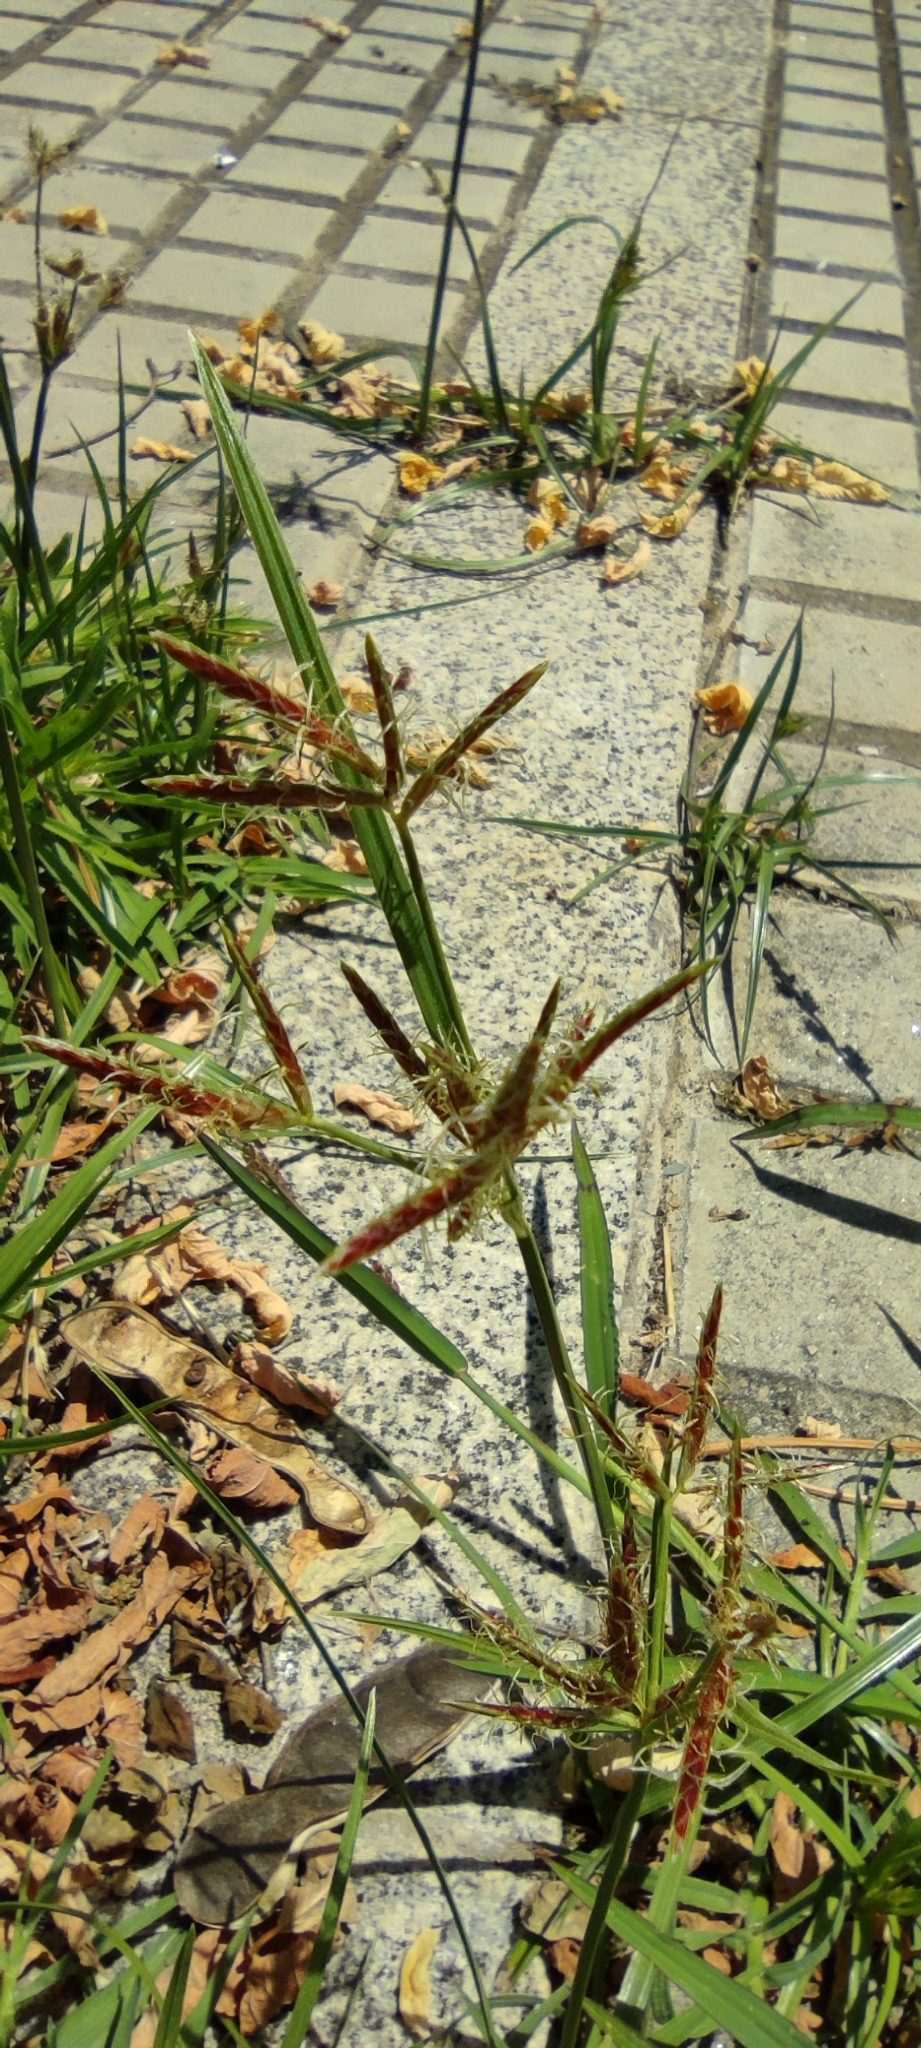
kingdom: Plantae
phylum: Tracheophyta
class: Liliopsida
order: Poales
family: Cyperaceae
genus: Cyperus
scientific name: Cyperus rotundus
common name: Nutgrass
